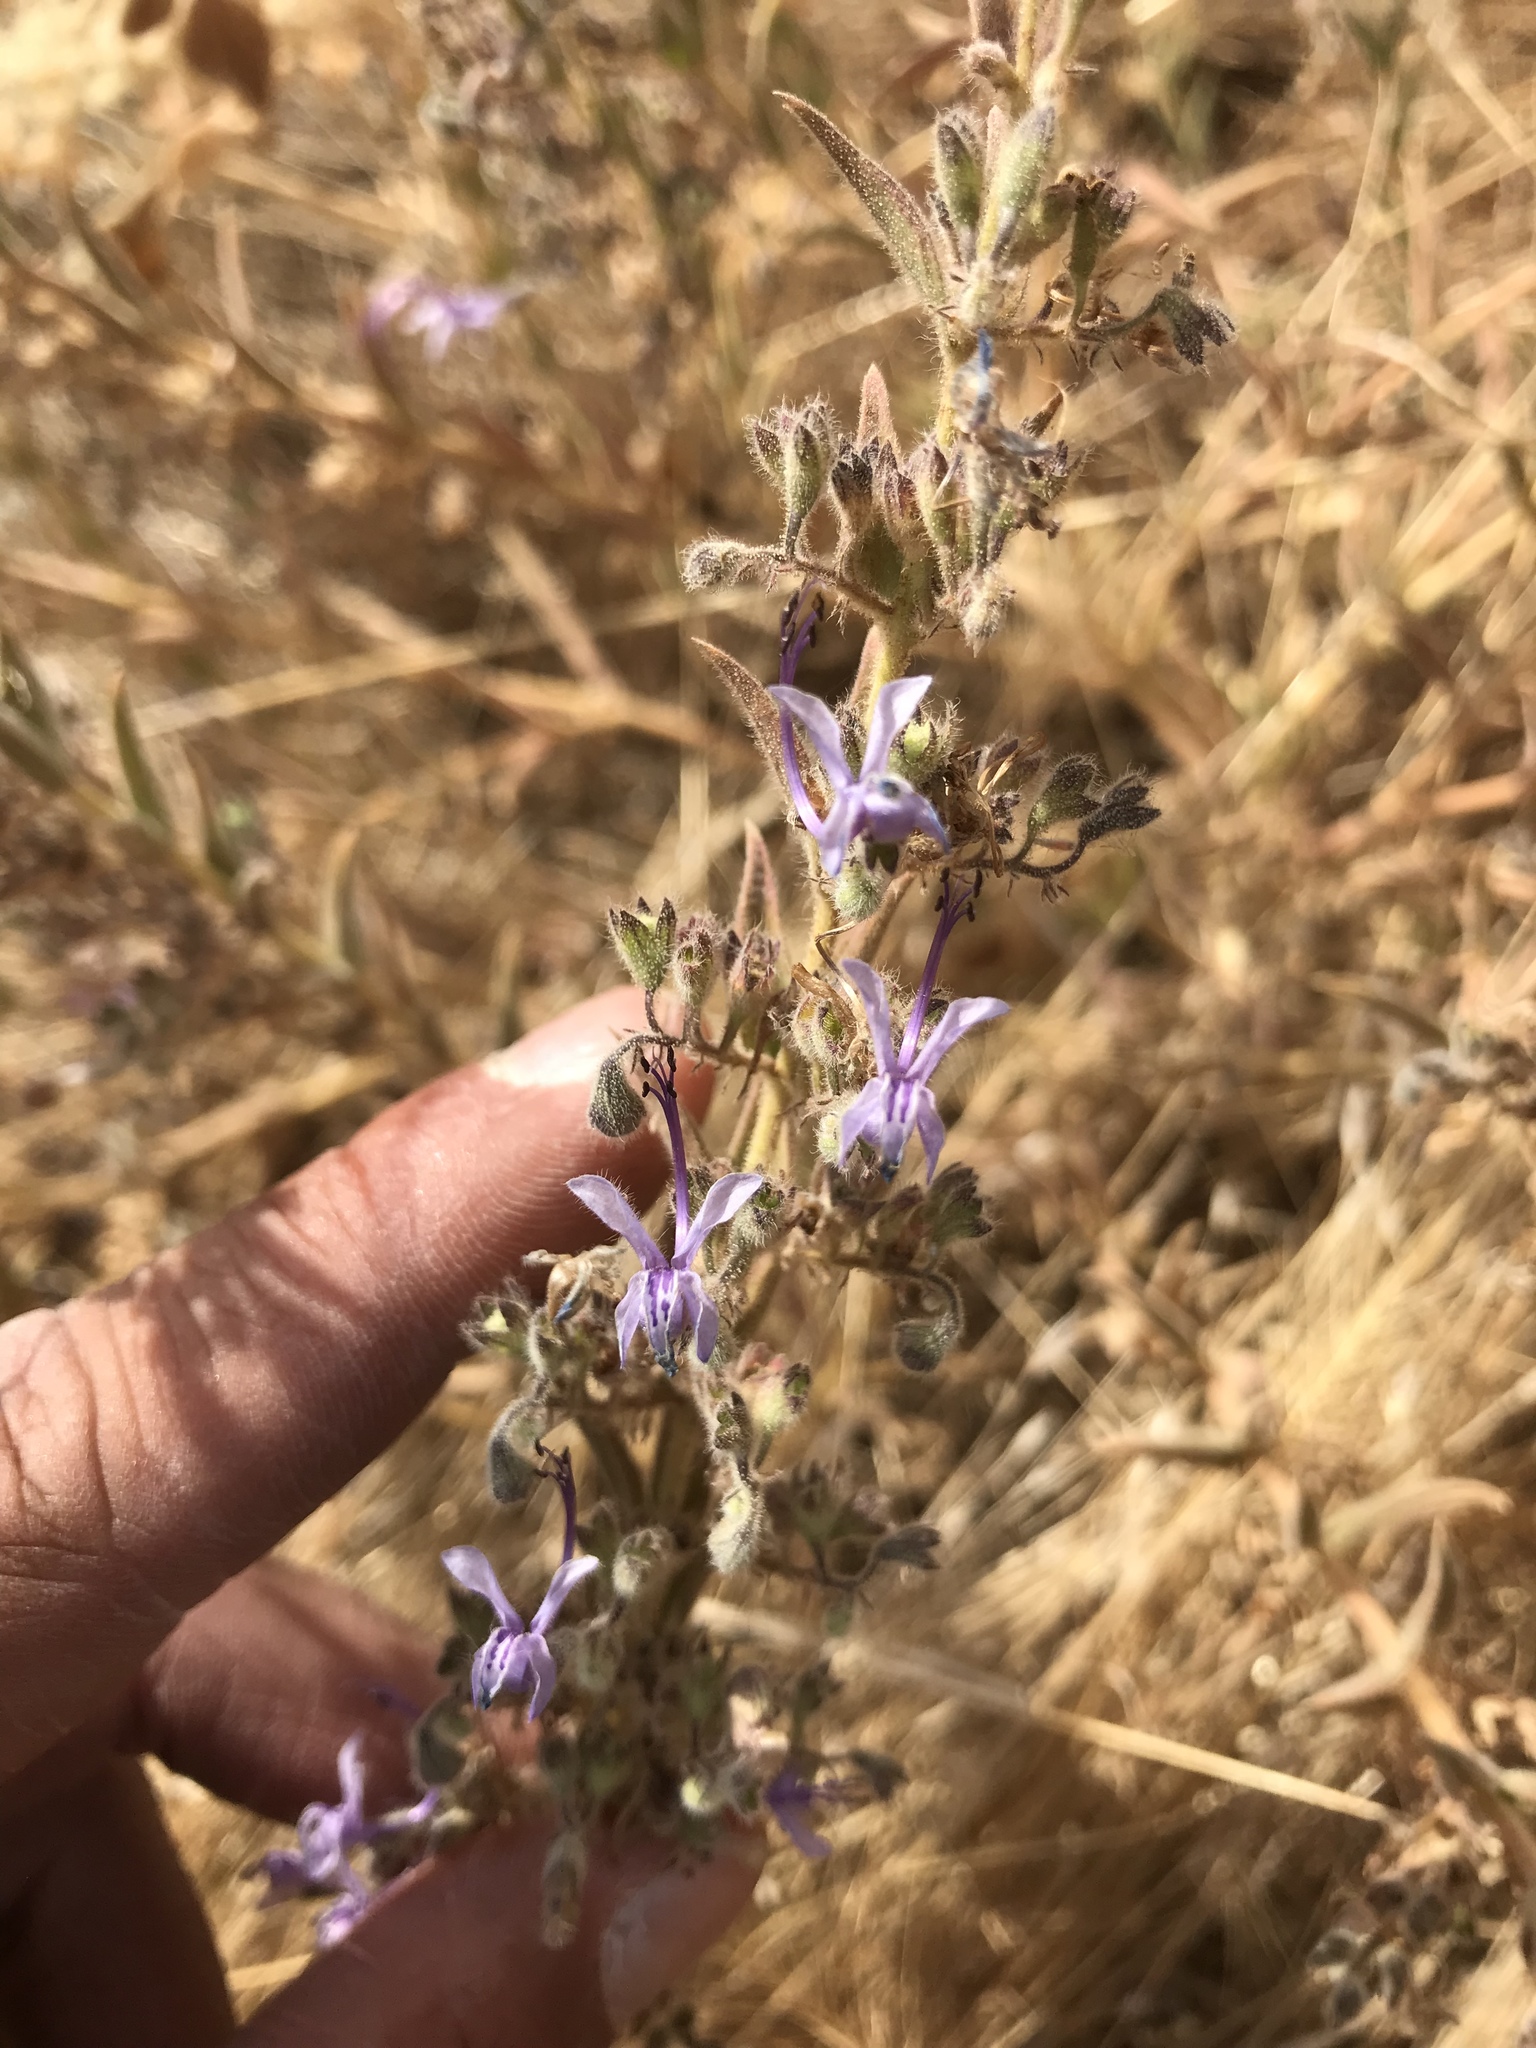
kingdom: Plantae
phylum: Tracheophyta
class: Magnoliopsida
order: Lamiales
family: Lamiaceae
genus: Trichostema
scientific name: Trichostema lanceolatum
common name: Vinegar-weed
